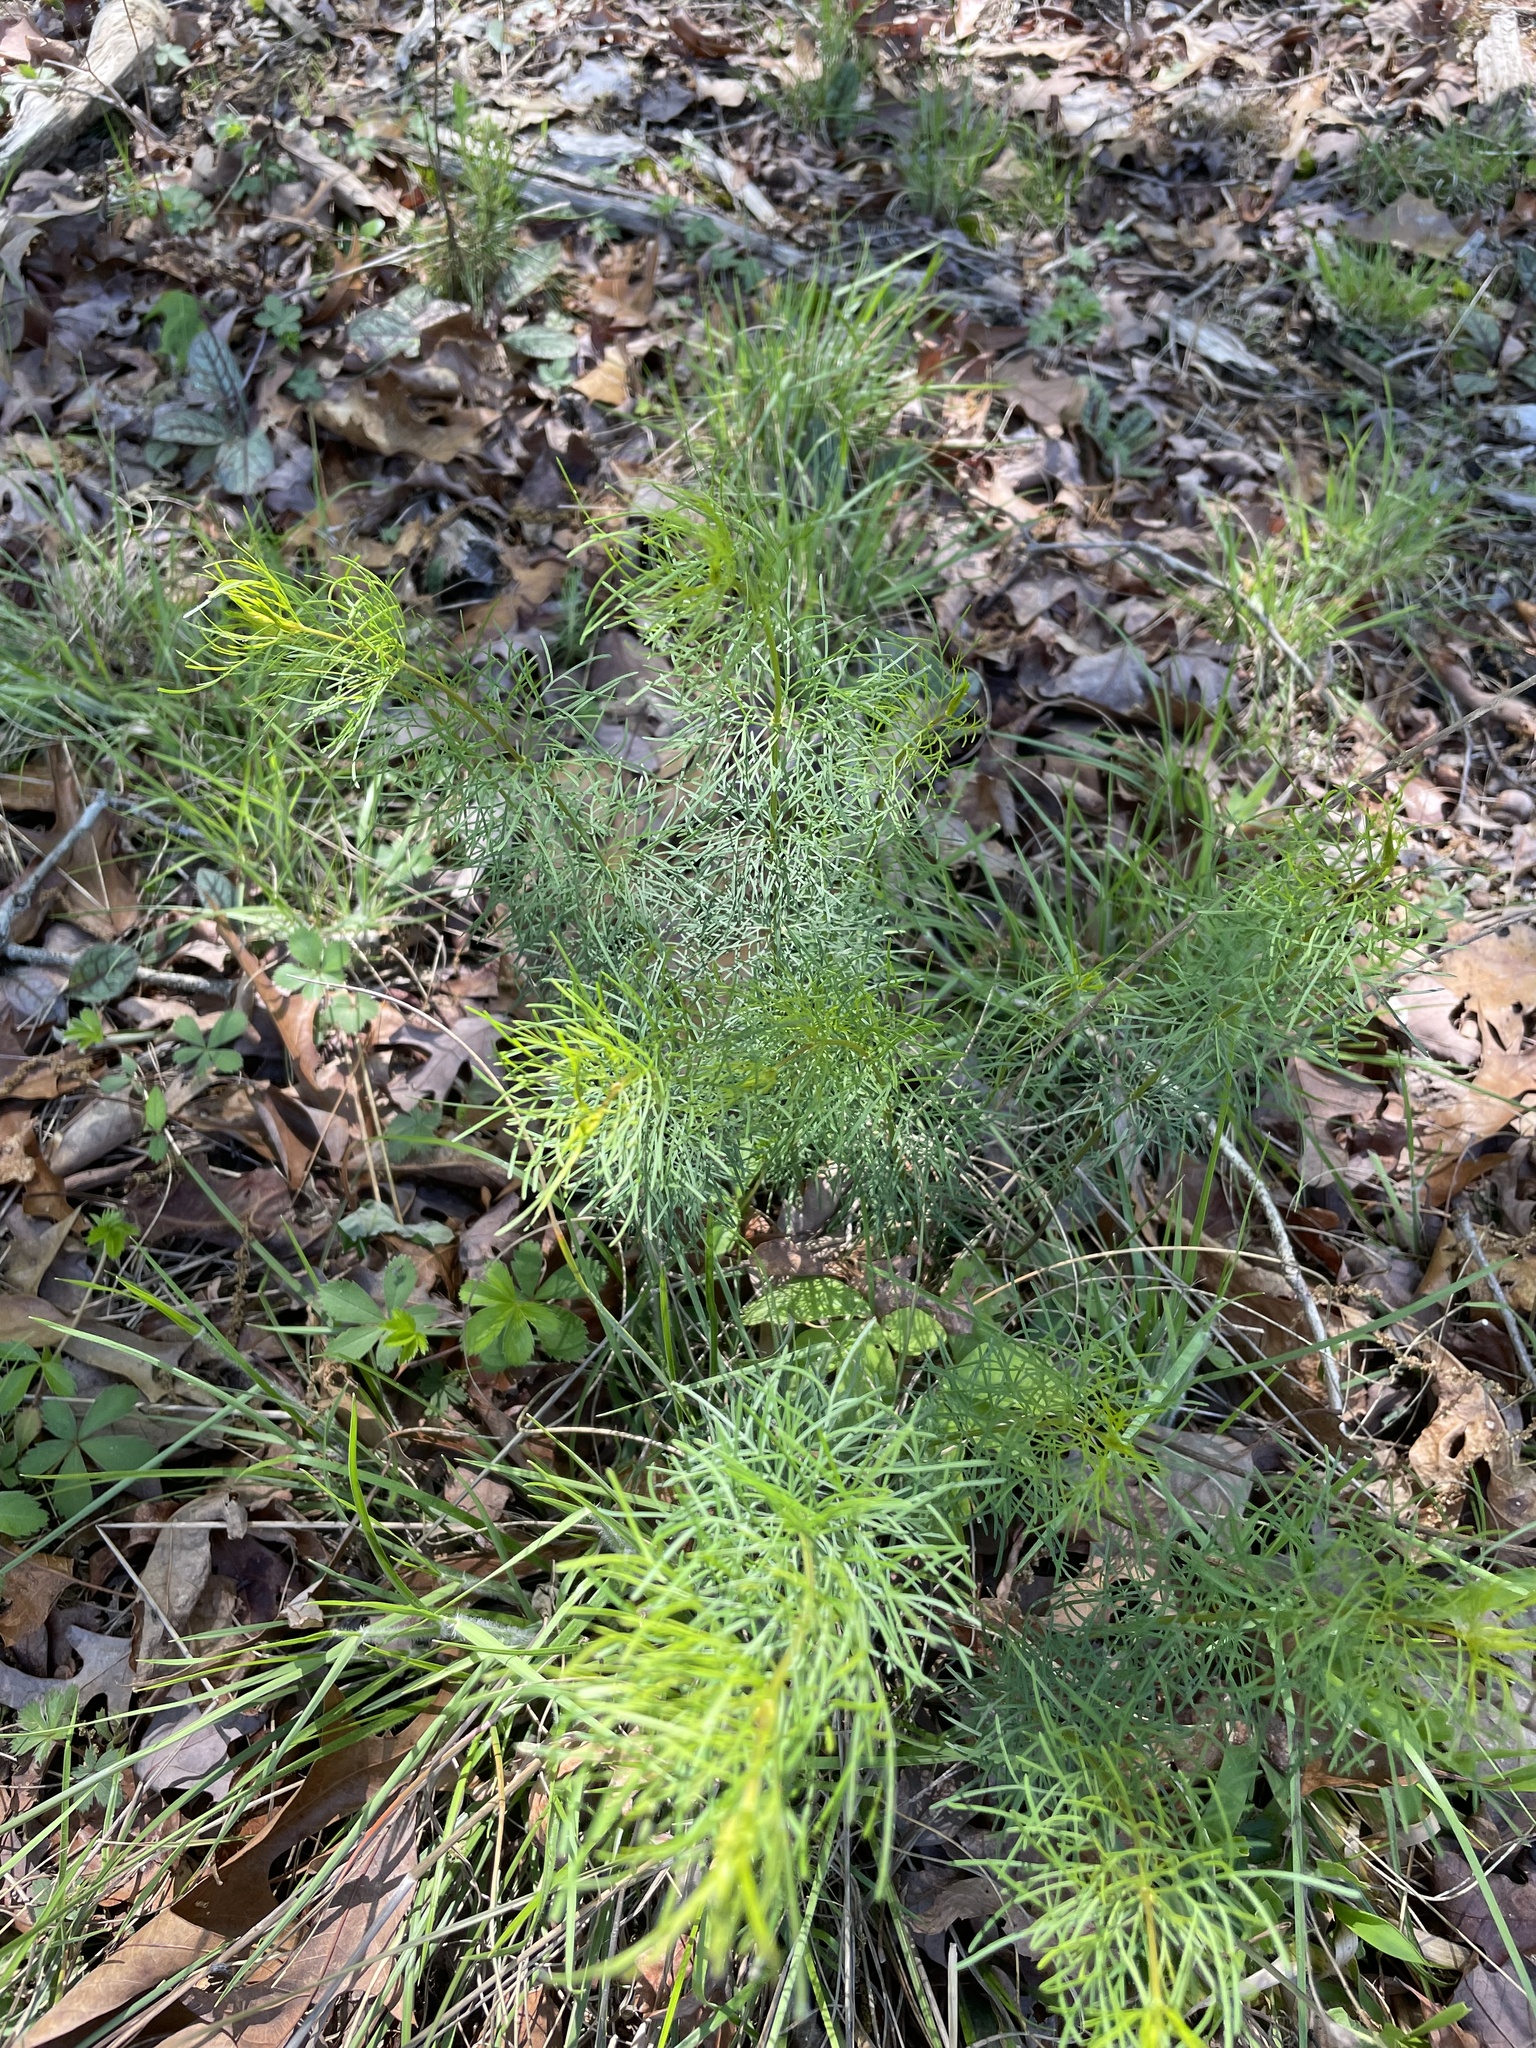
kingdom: Plantae
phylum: Tracheophyta
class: Magnoliopsida
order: Asterales
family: Asteraceae
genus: Coreopsis
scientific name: Coreopsis verticillata
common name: Whorled tickseed
